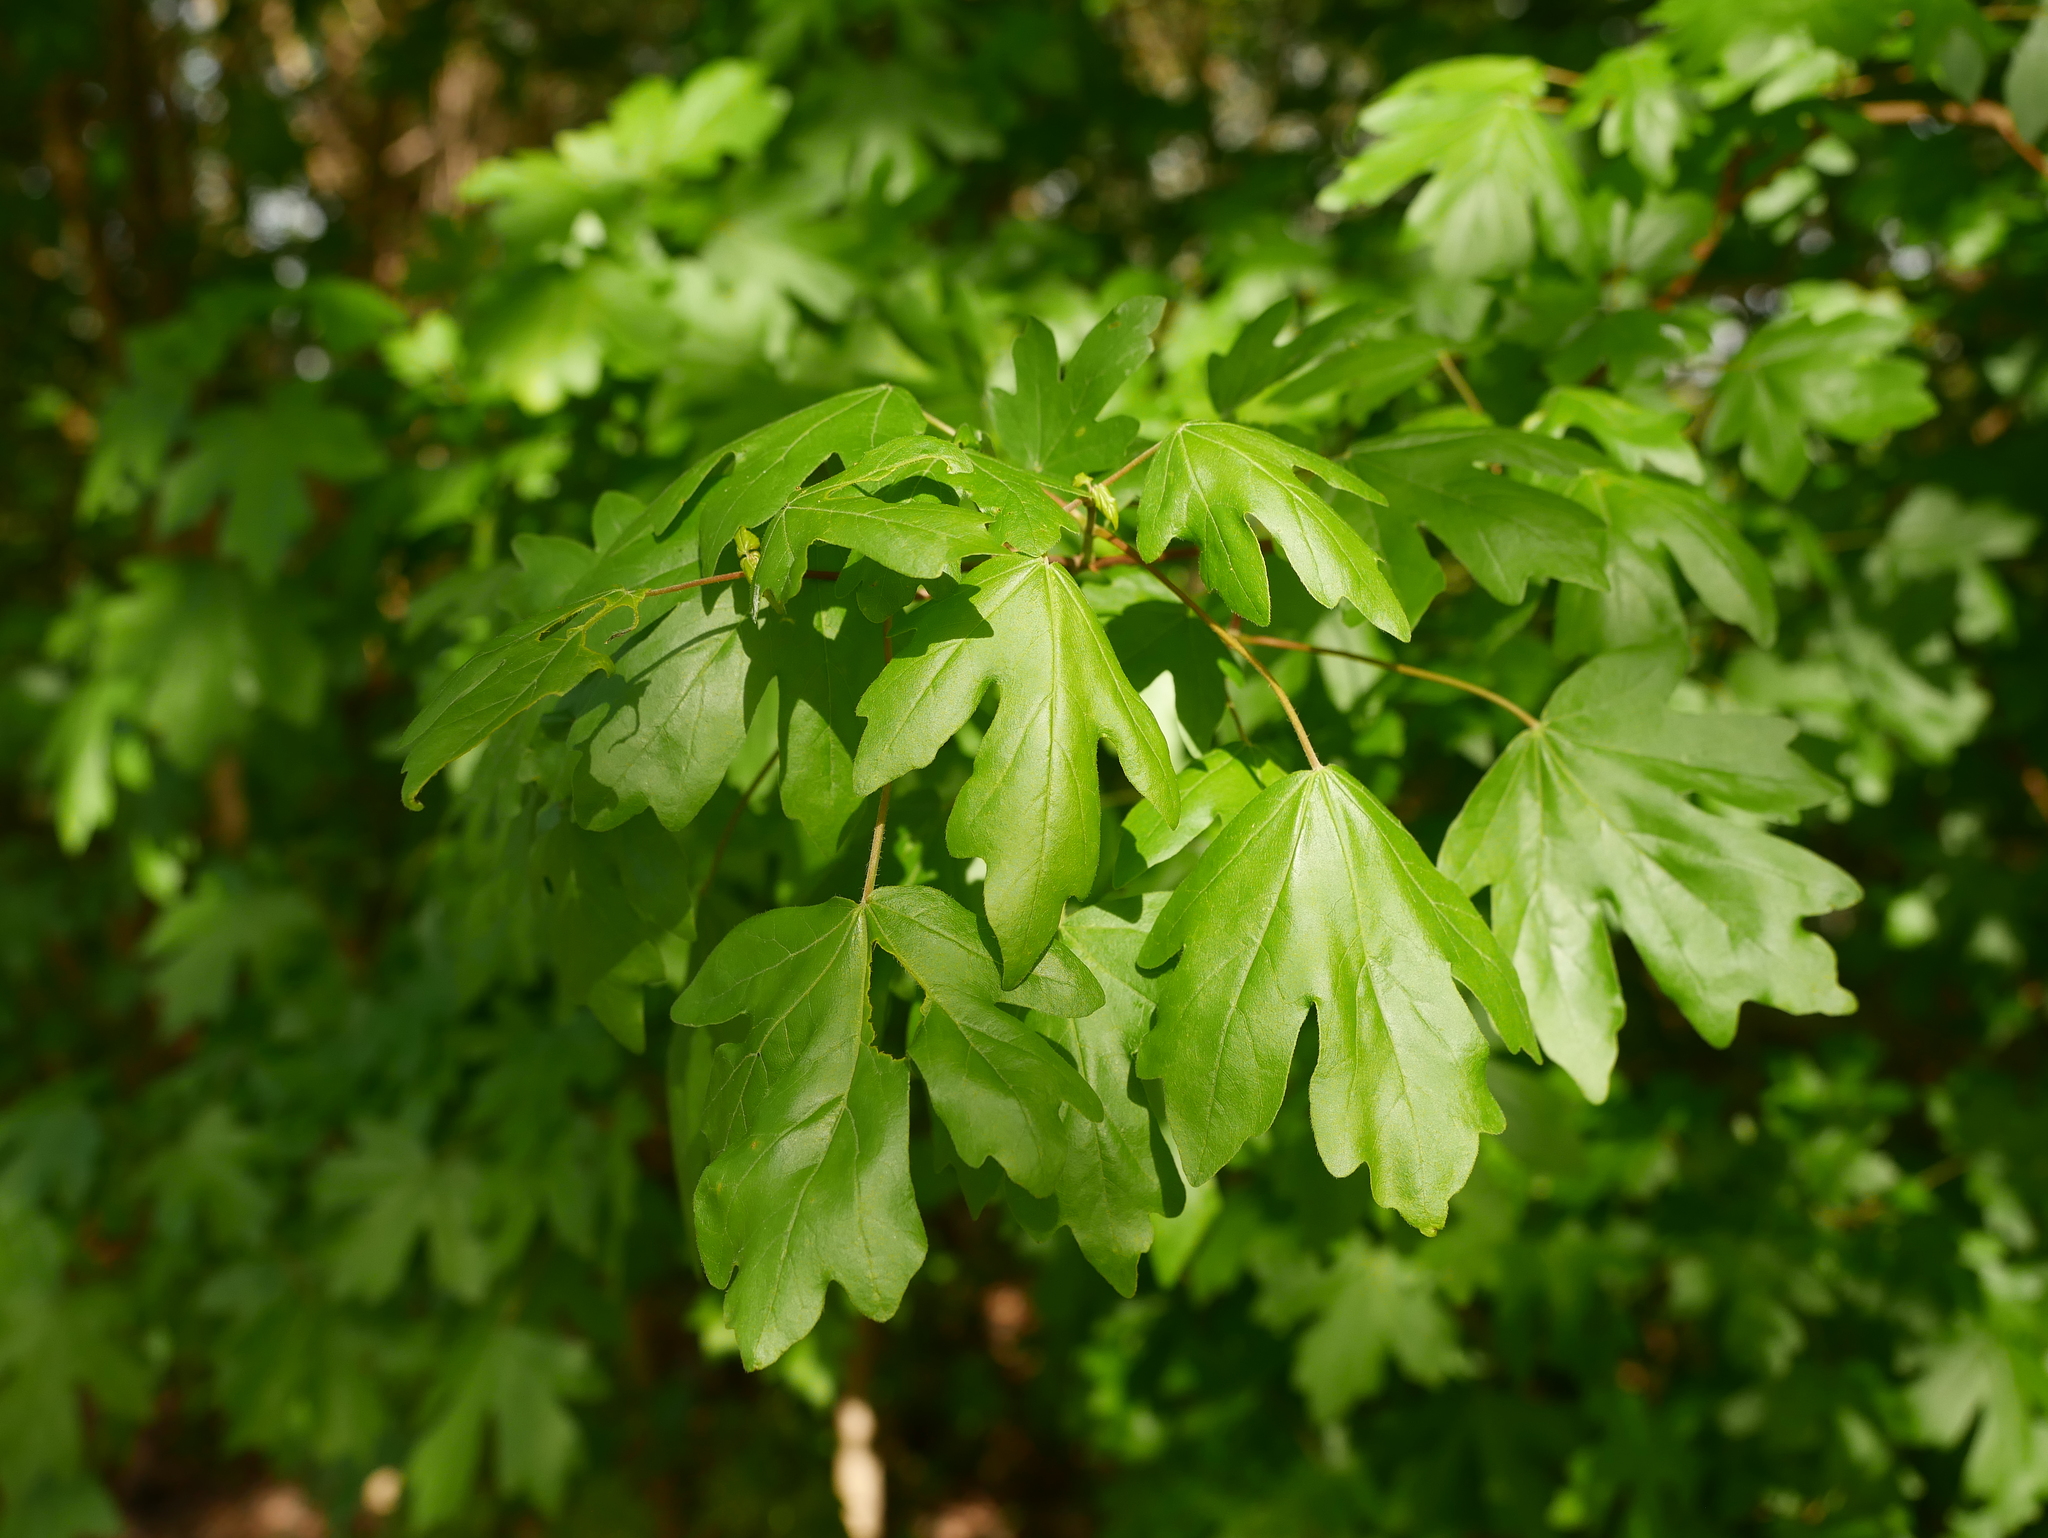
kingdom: Plantae
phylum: Tracheophyta
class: Magnoliopsida
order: Sapindales
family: Sapindaceae
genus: Acer
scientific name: Acer campestre
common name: Field maple
